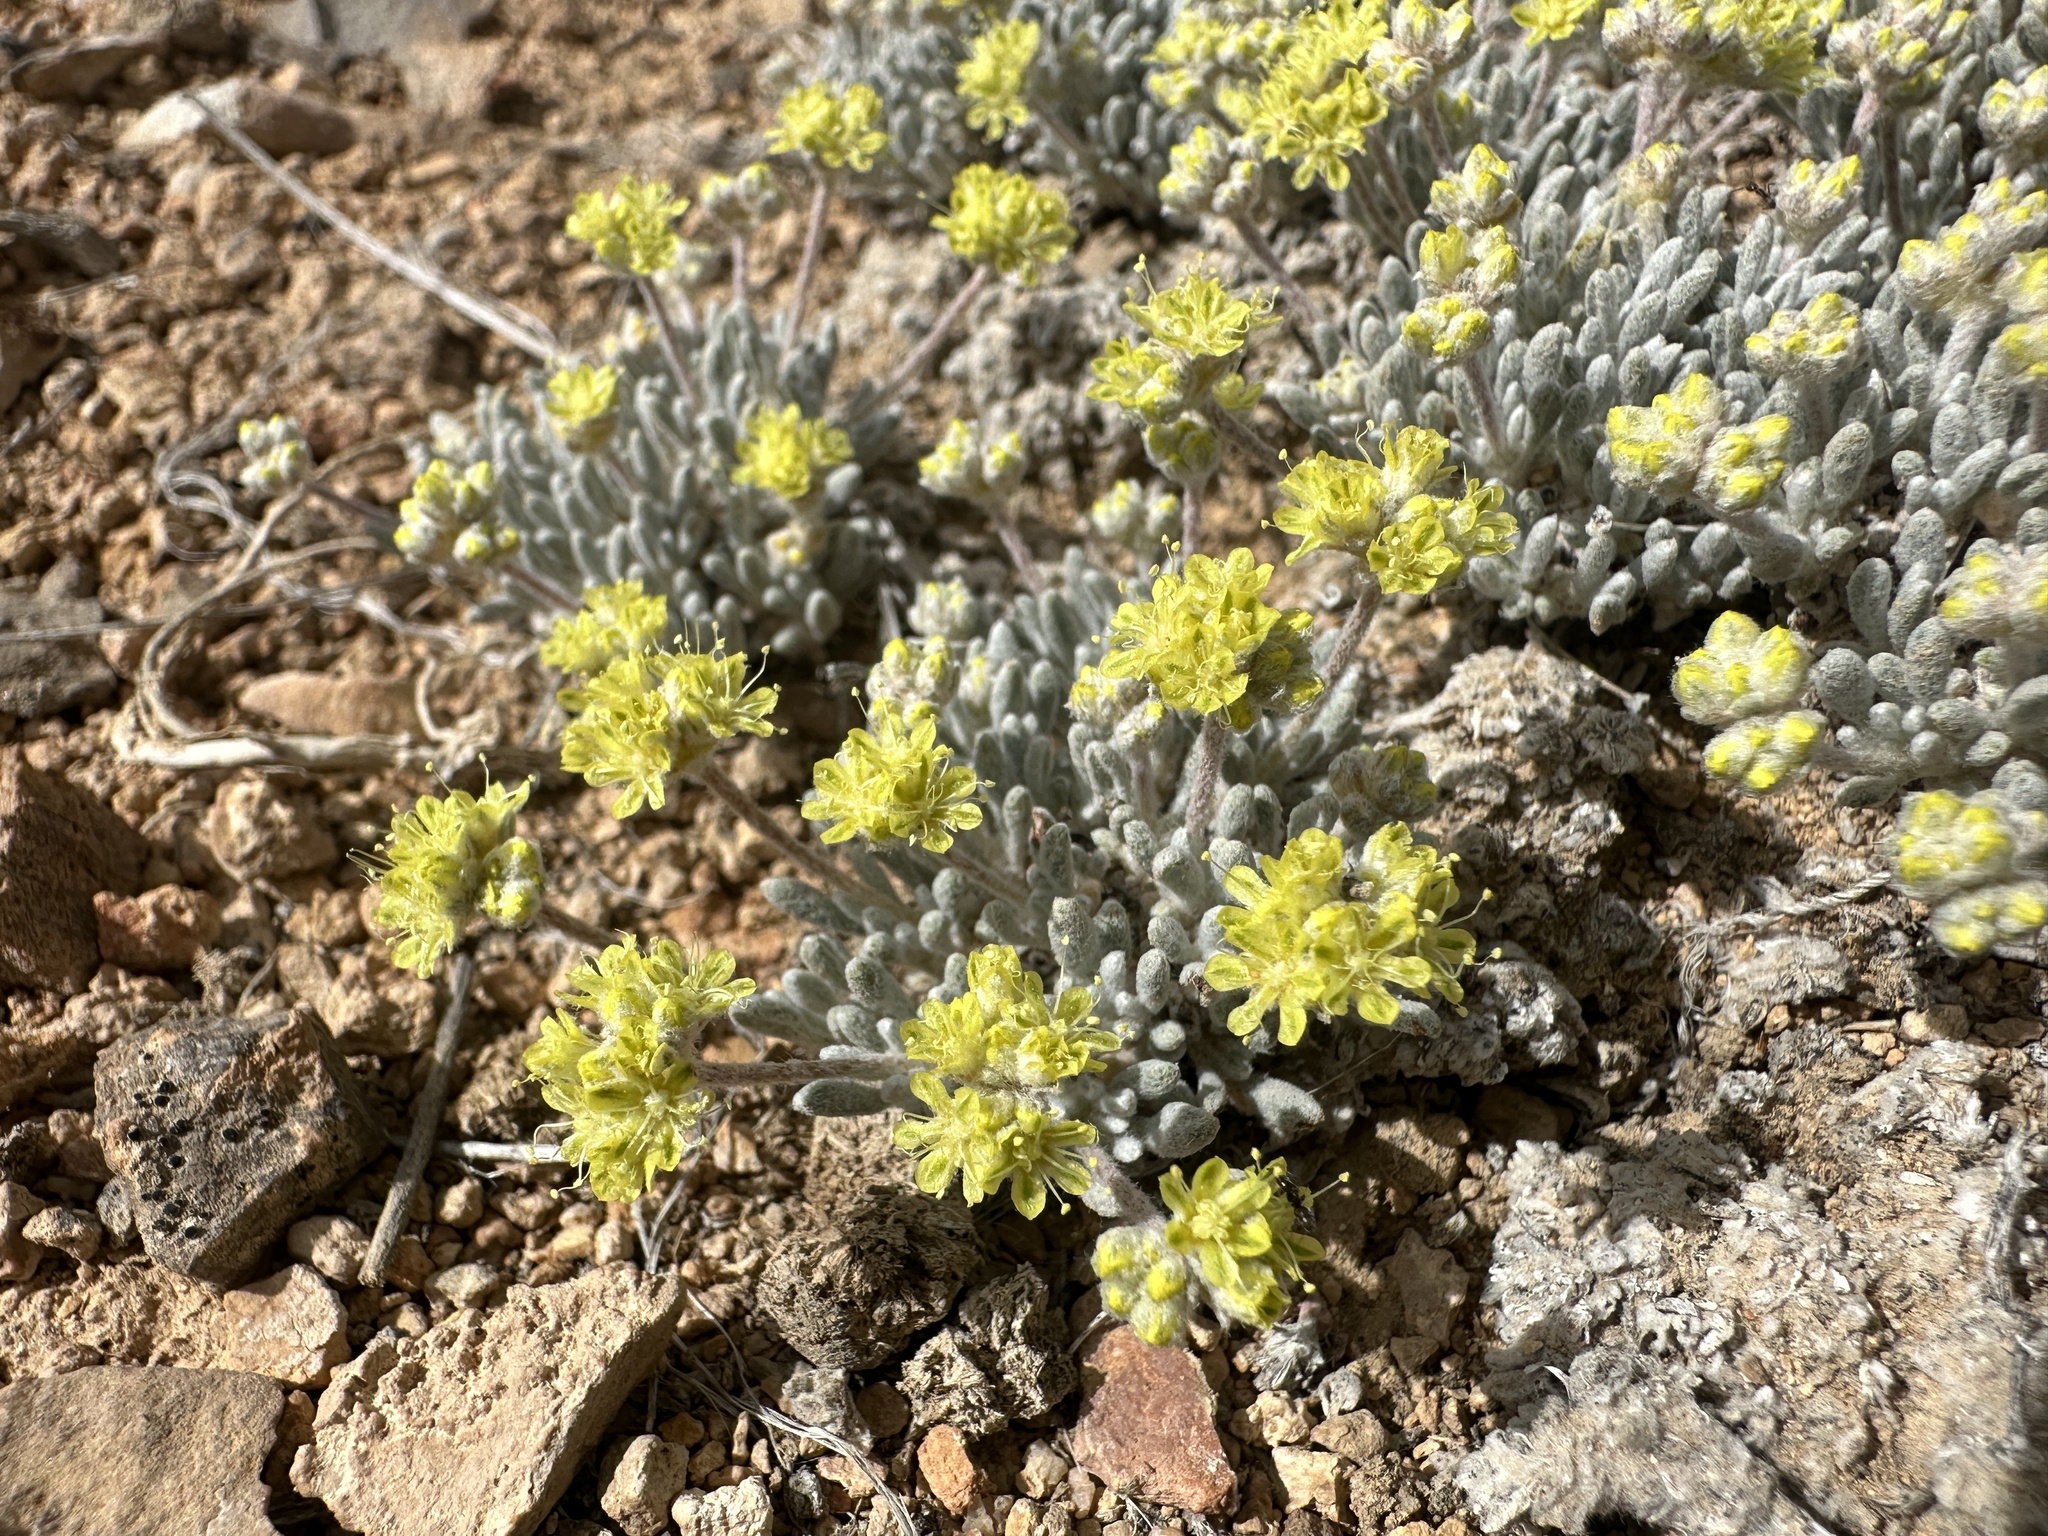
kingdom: Plantae
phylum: Tracheophyta
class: Magnoliopsida
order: Caryophyllales
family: Polygonaceae
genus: Eriogonum
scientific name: Eriogonum shockleyi
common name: Shockley's wild buckwheat
